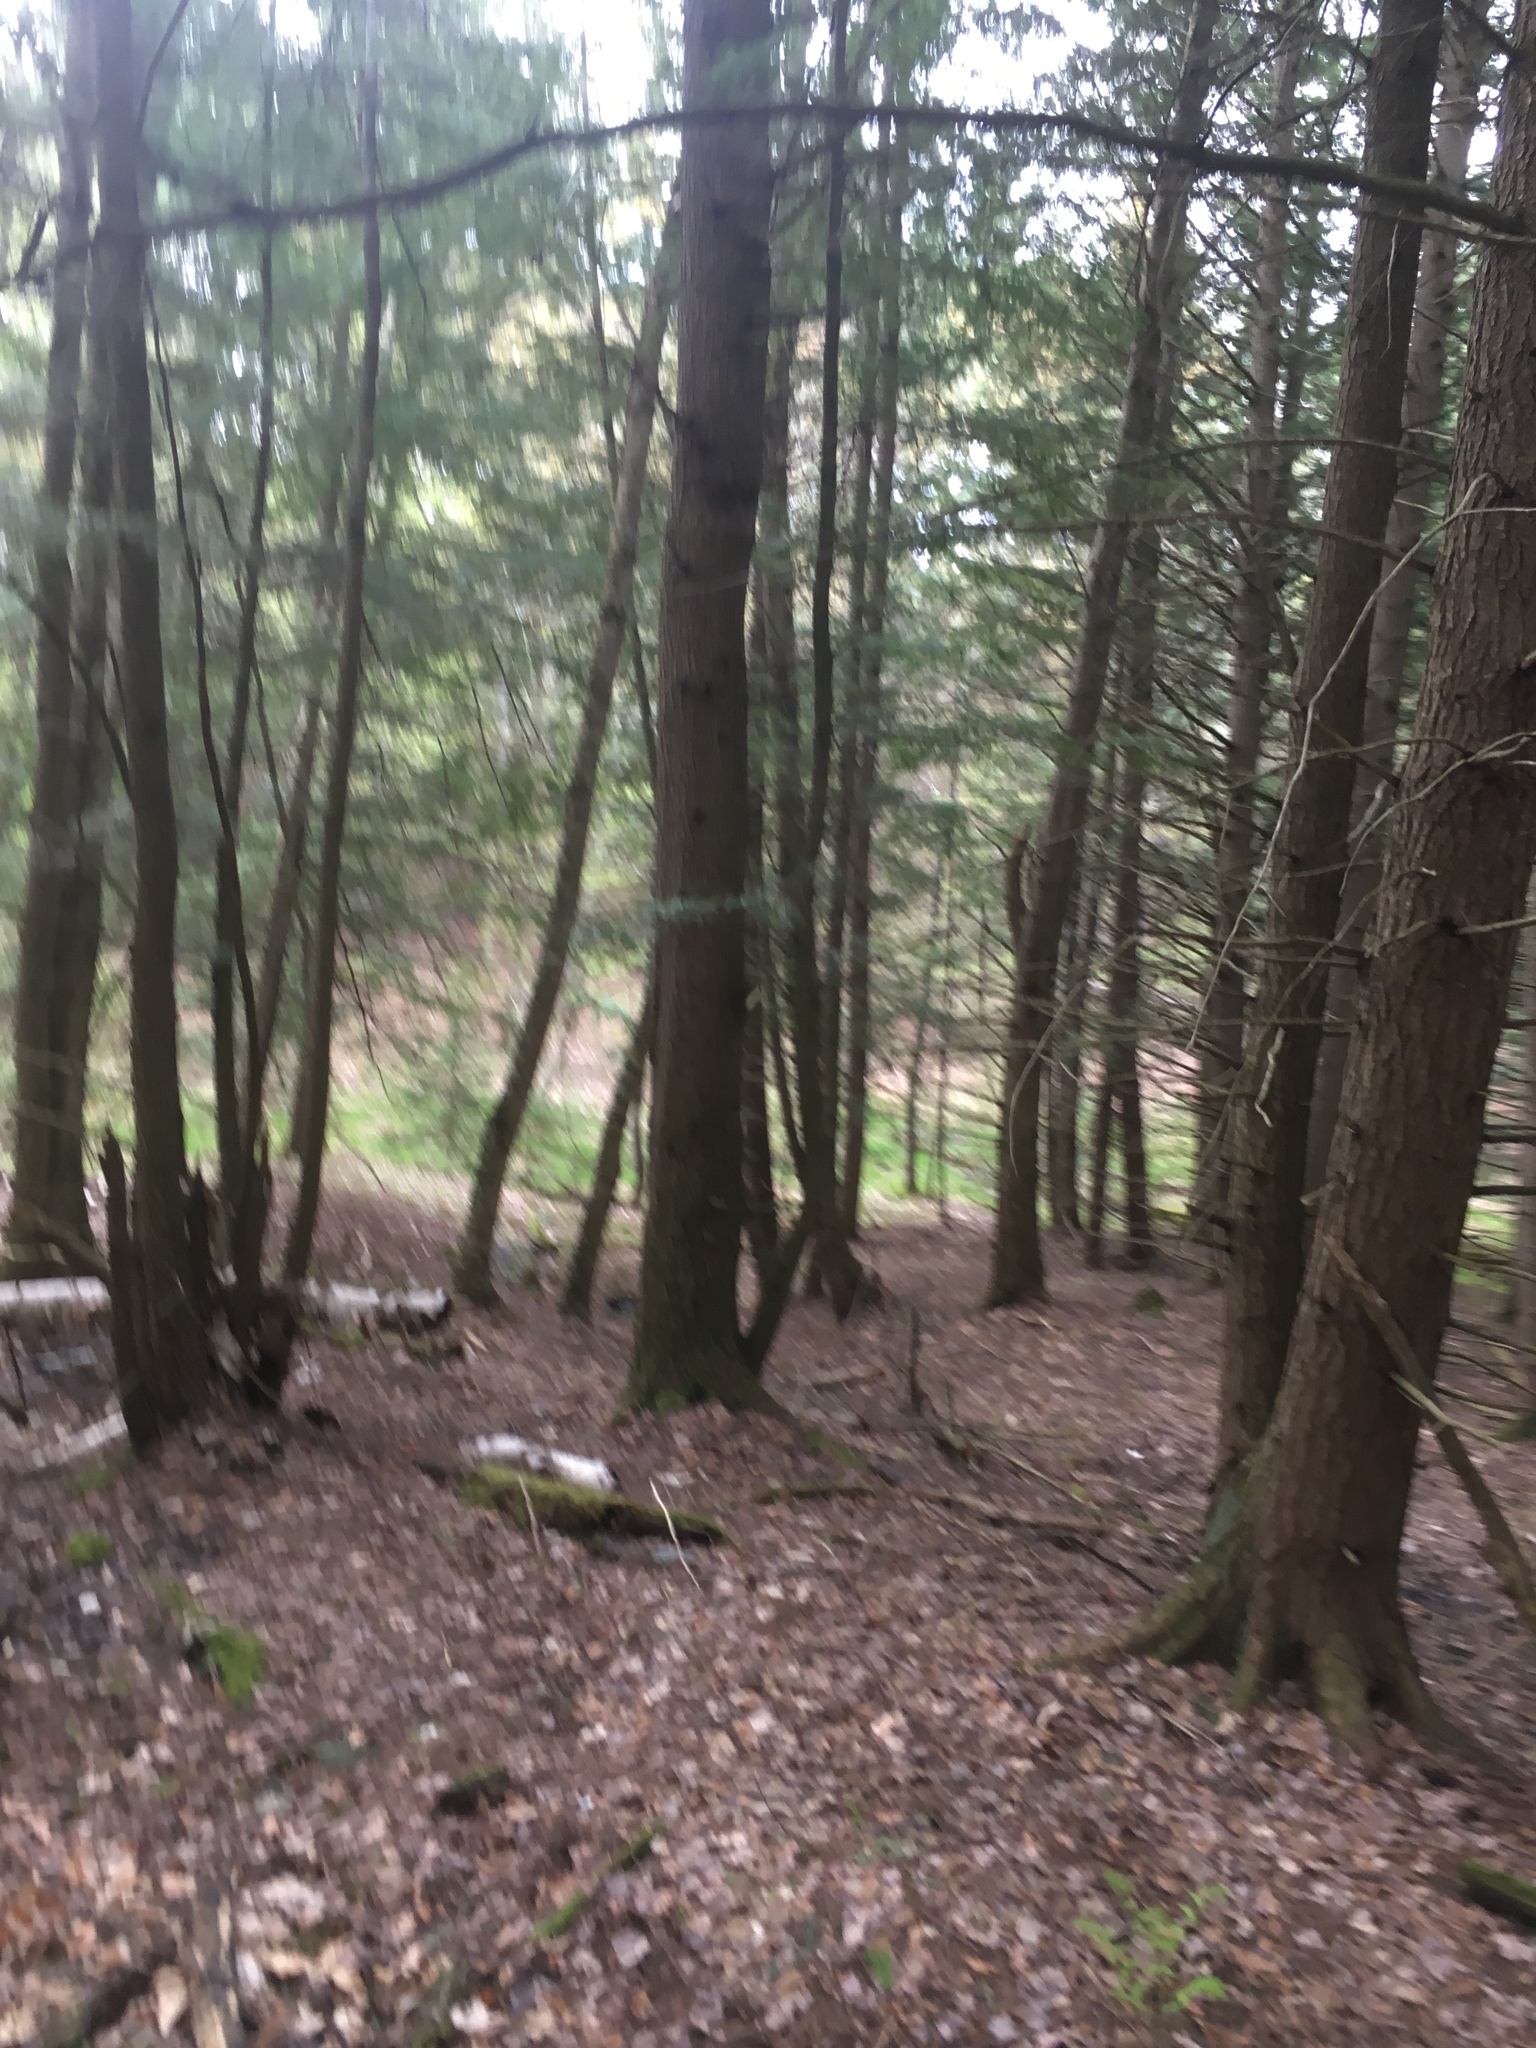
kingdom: Plantae
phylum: Tracheophyta
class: Pinopsida
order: Pinales
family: Pinaceae
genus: Tsuga
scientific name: Tsuga canadensis
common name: Eastern hemlock
